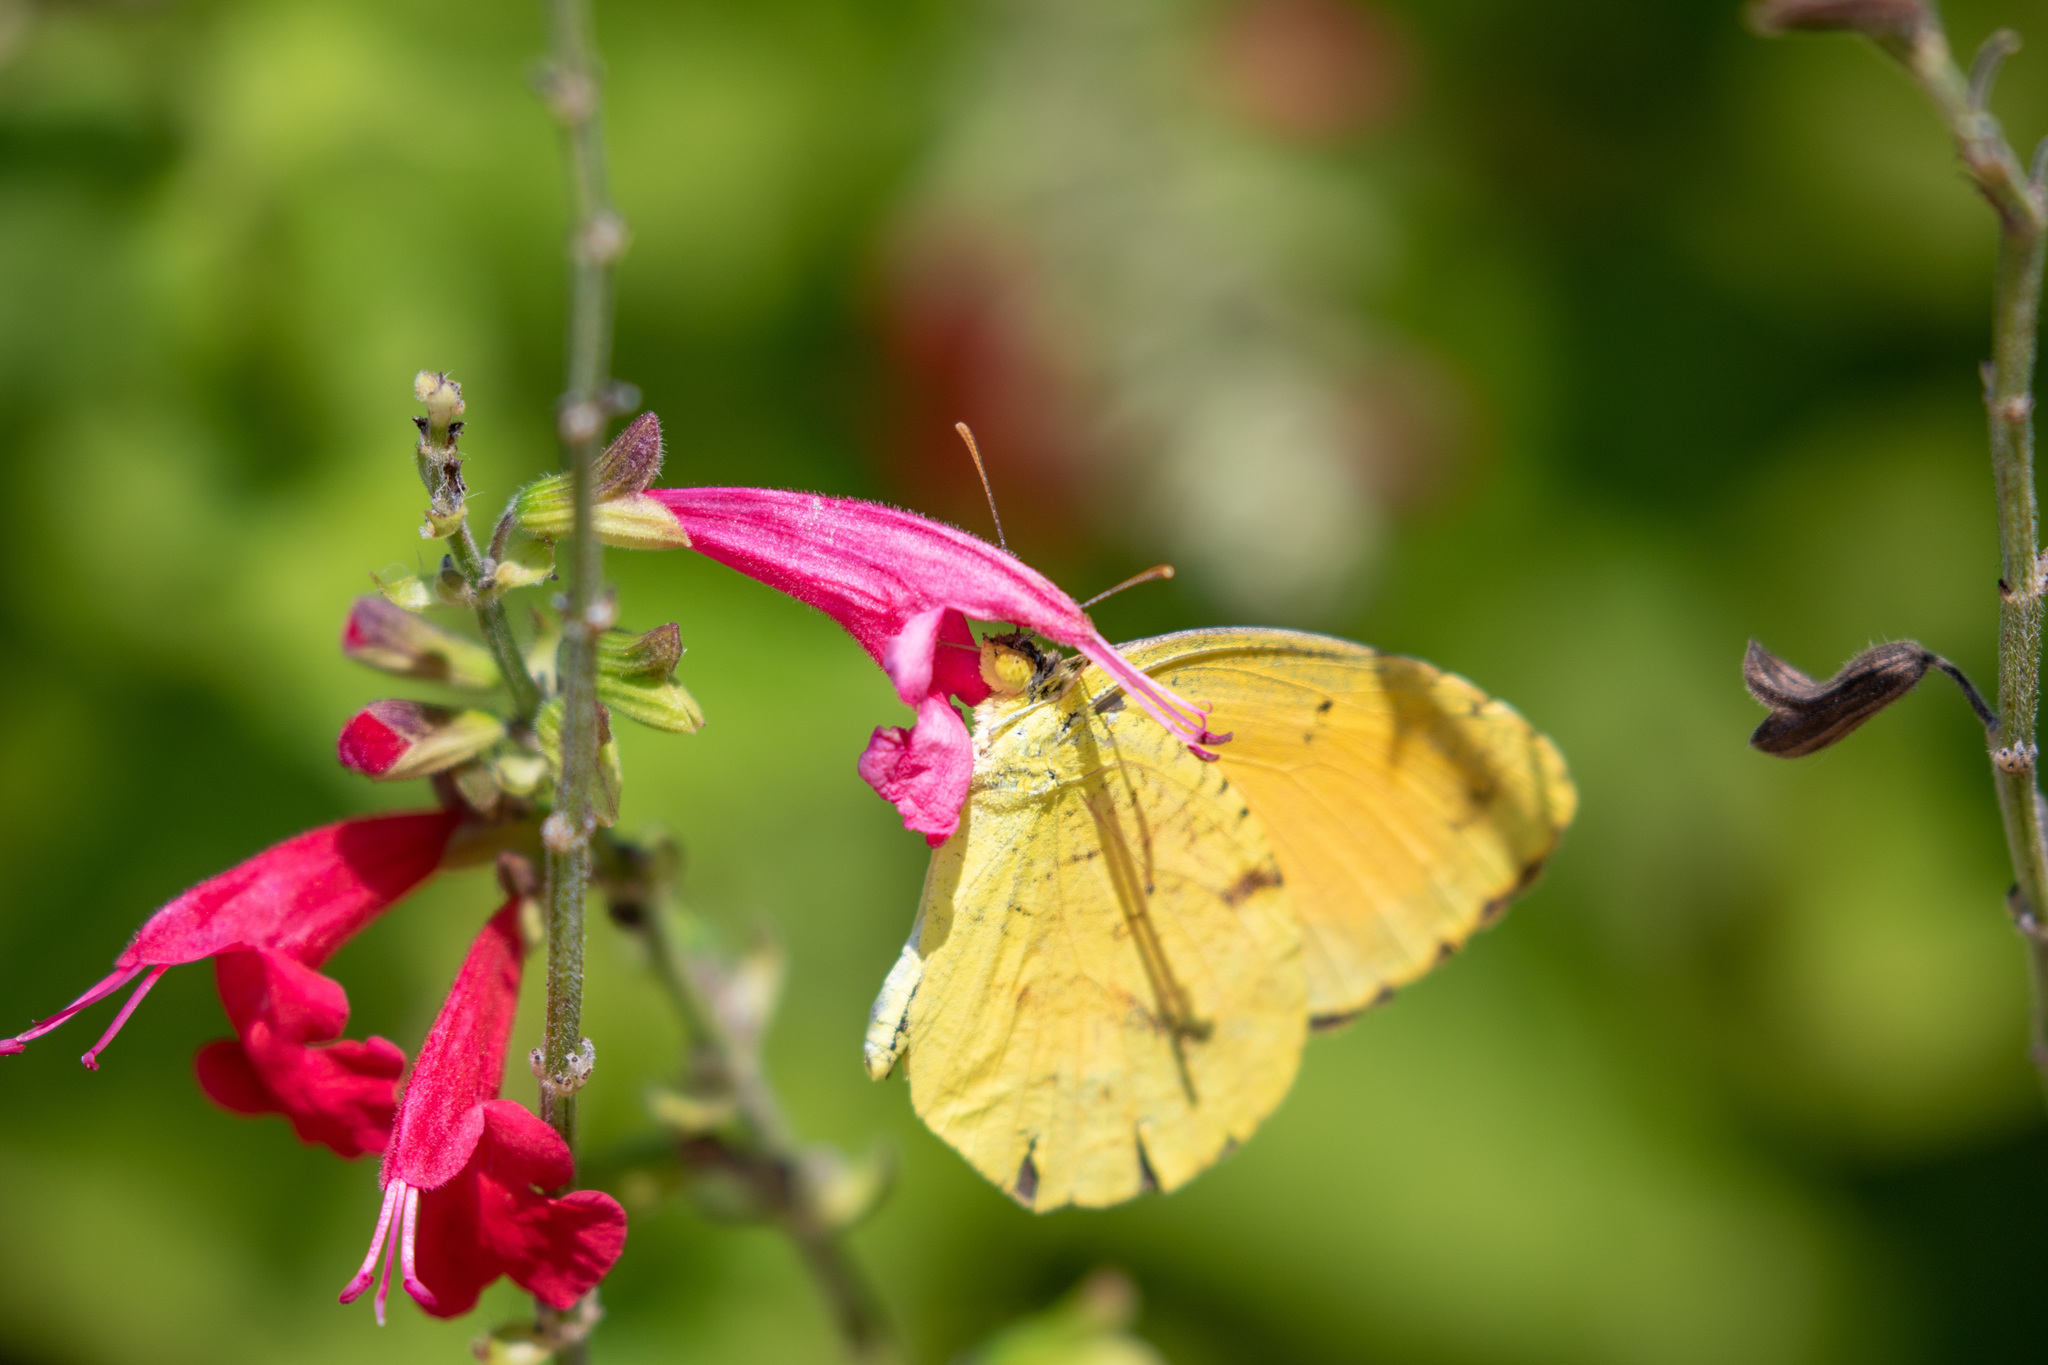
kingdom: Animalia
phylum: Arthropoda
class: Insecta
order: Lepidoptera
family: Pieridae
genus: Abaeis
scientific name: Abaeis nicippe
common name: Sleepy orange
